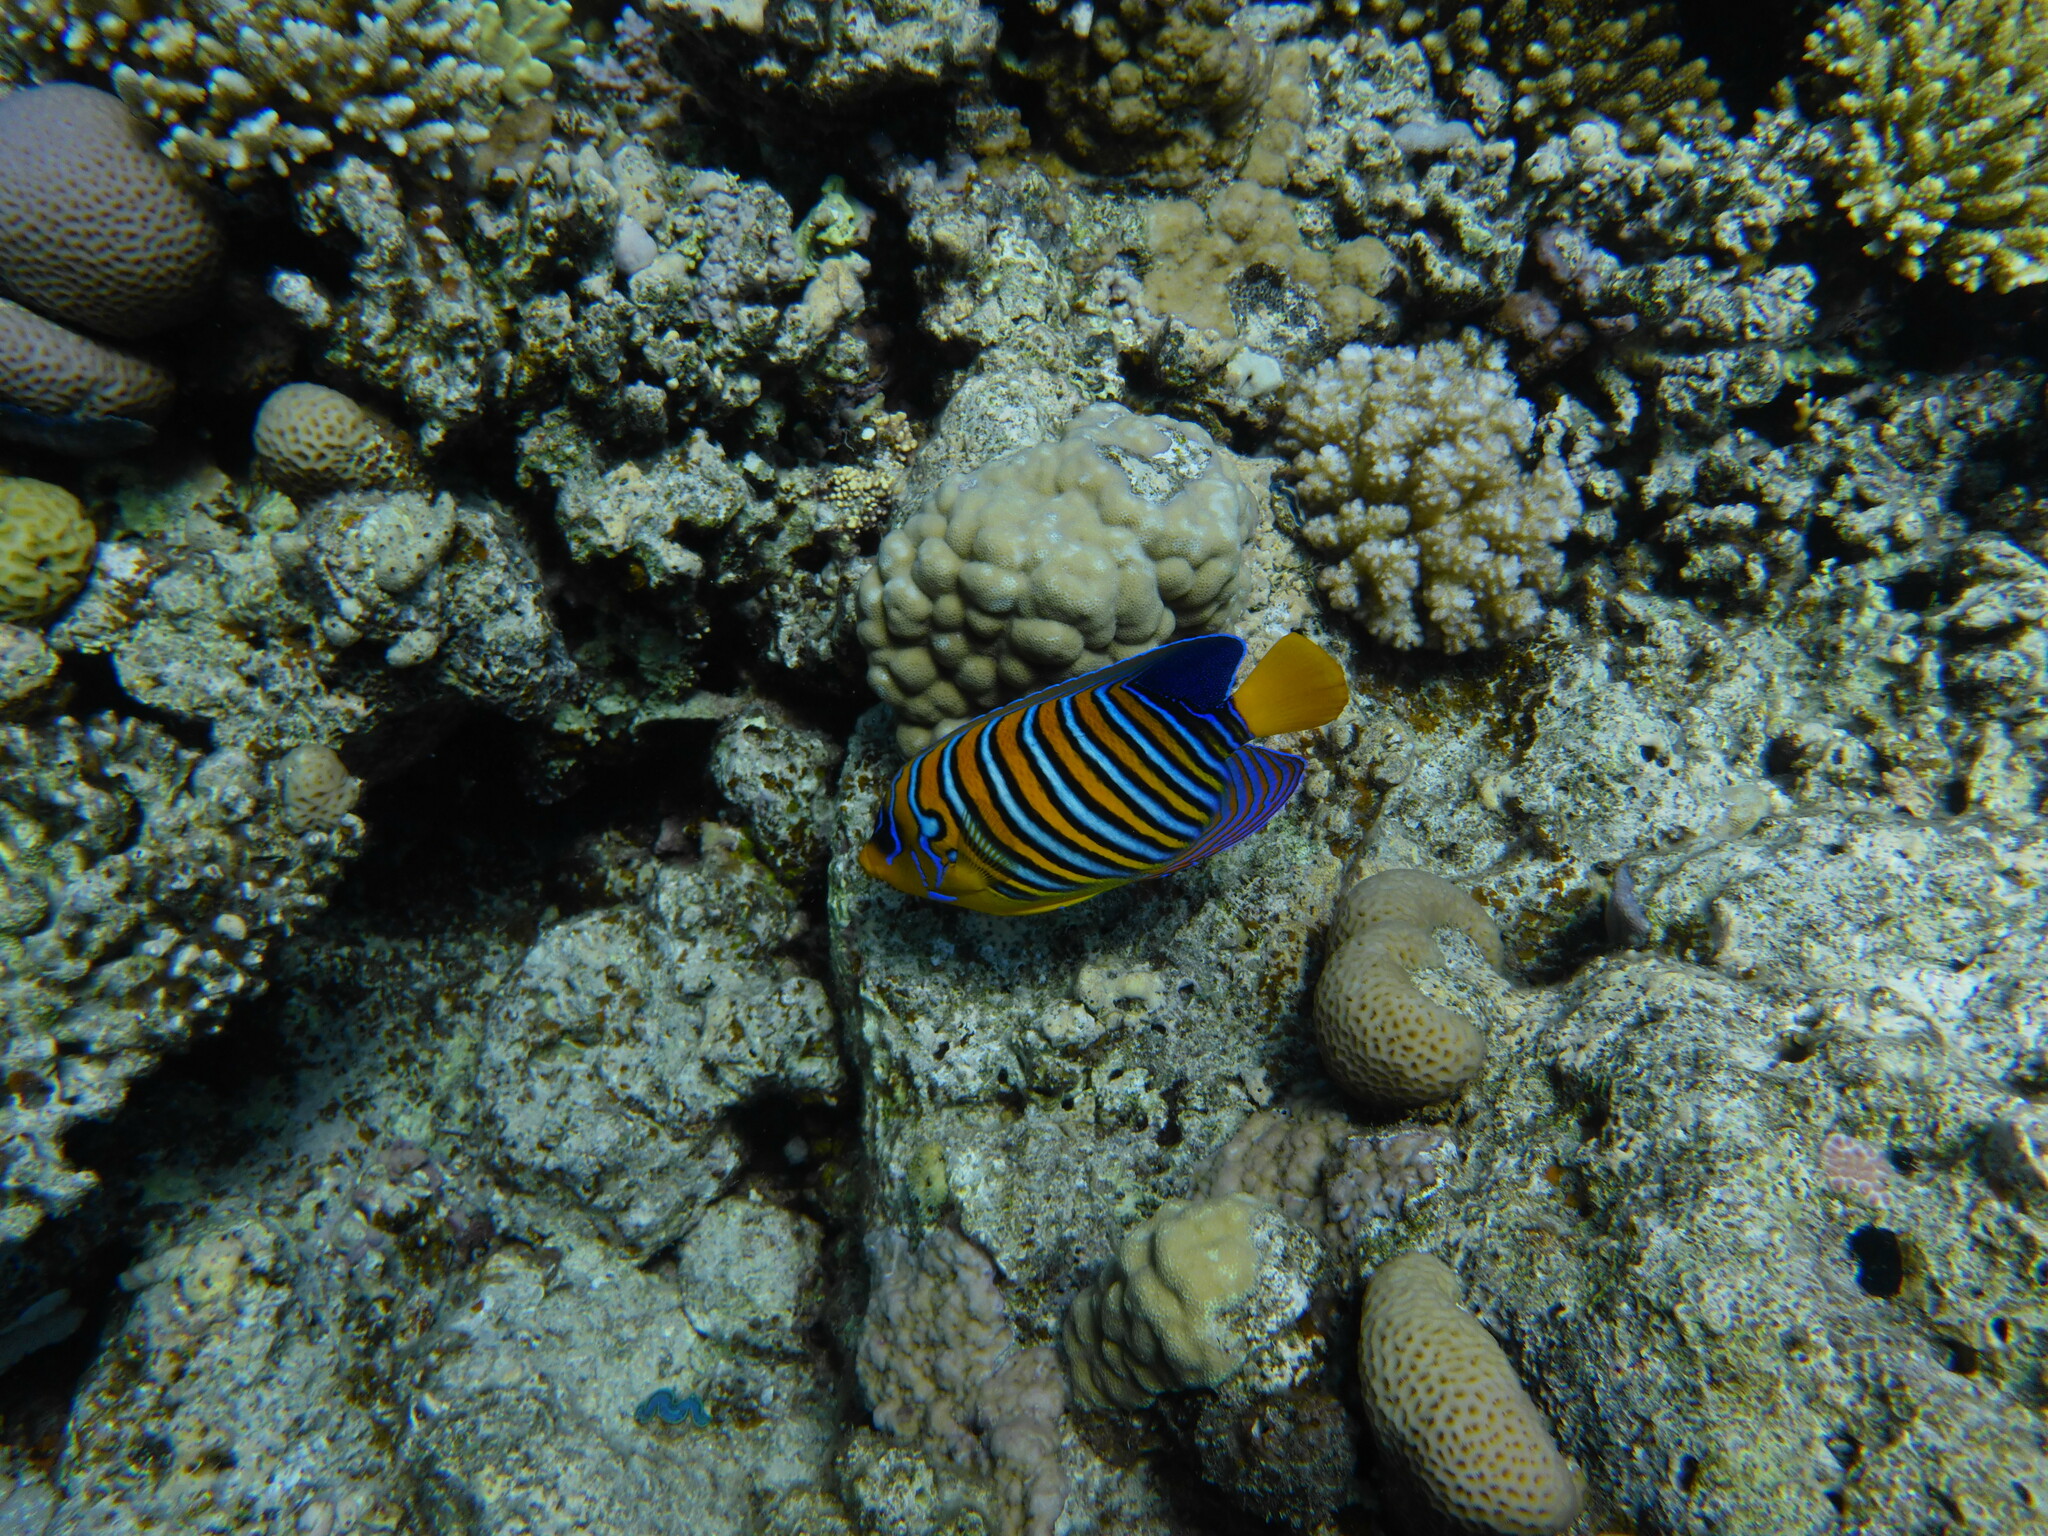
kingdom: Animalia
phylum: Chordata
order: Perciformes
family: Pomacanthidae
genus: Pygoplites
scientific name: Pygoplites diacanthus
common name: Regal angelfish
